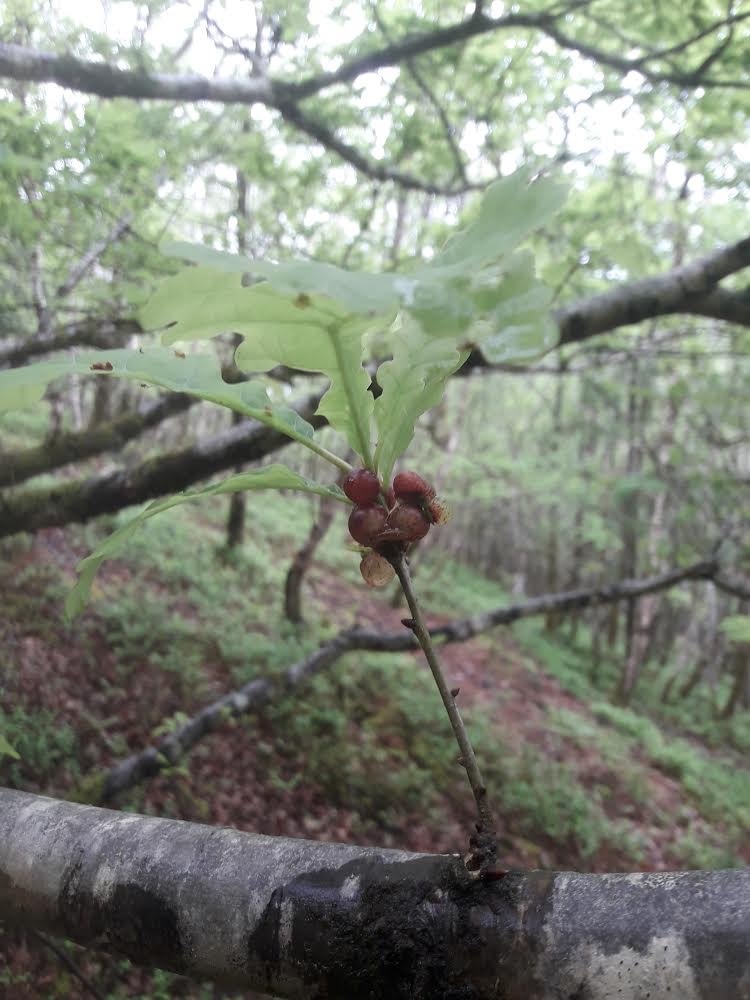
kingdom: Animalia
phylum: Arthropoda
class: Insecta
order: Hymenoptera
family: Cynipidae
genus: Neuroterus
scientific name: Neuroterus quercusbaccarum
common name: Common spangle gall
